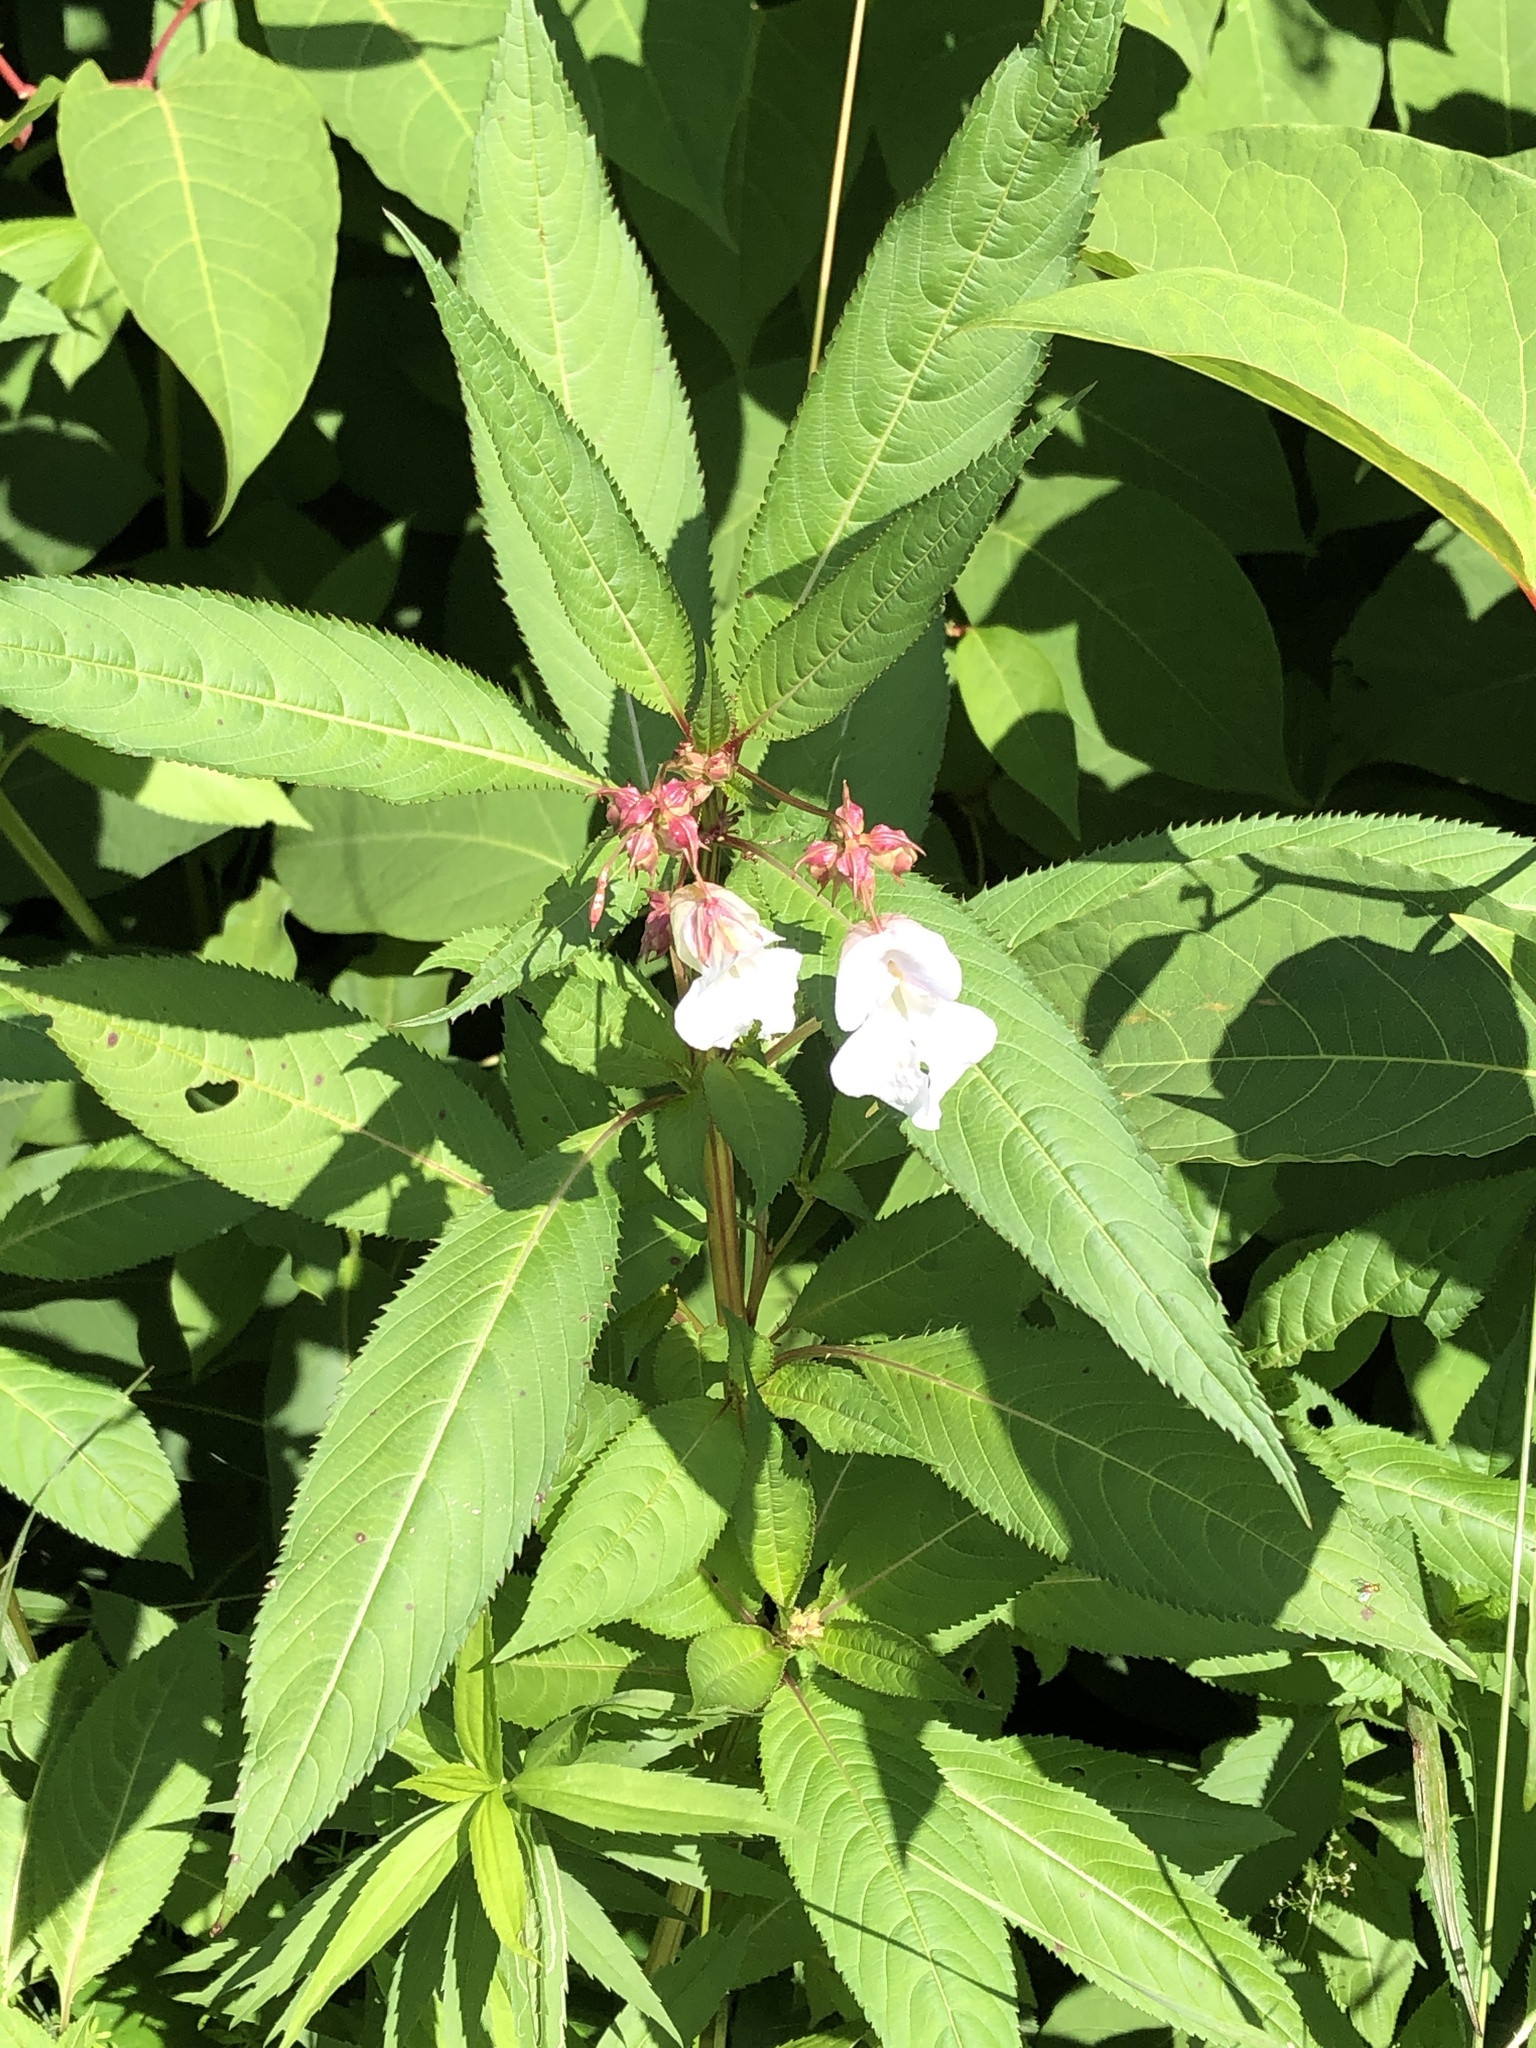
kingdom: Plantae
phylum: Tracheophyta
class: Magnoliopsida
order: Ericales
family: Balsaminaceae
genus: Impatiens
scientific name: Impatiens glandulifera
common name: Himalayan balsam
